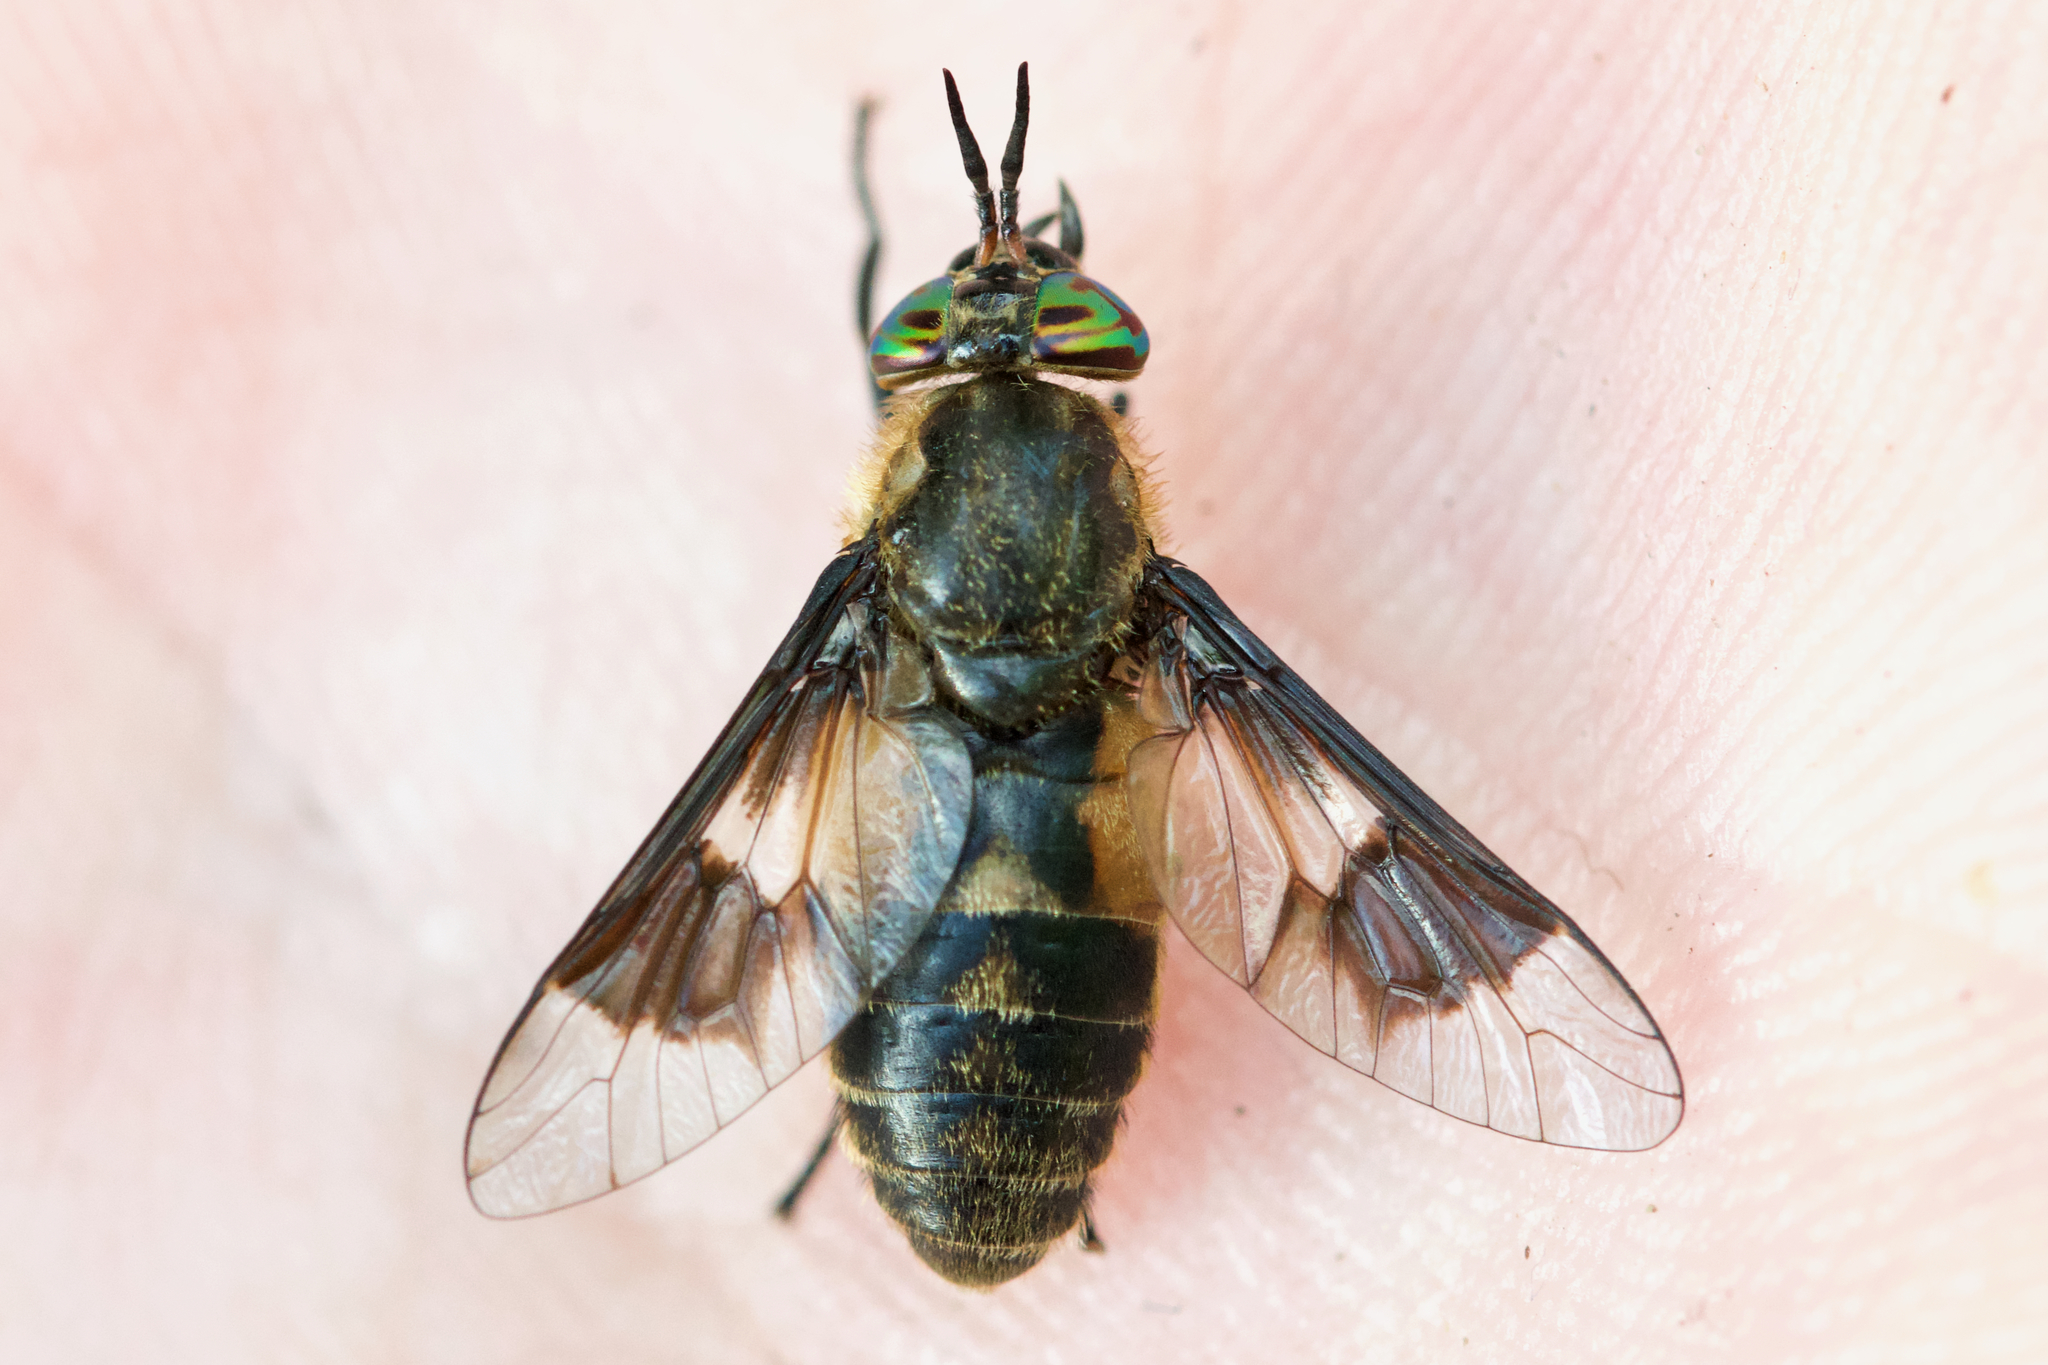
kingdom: Animalia
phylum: Arthropoda
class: Insecta
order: Diptera
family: Tabanidae
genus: Chrysops
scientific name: Chrysops excitans
